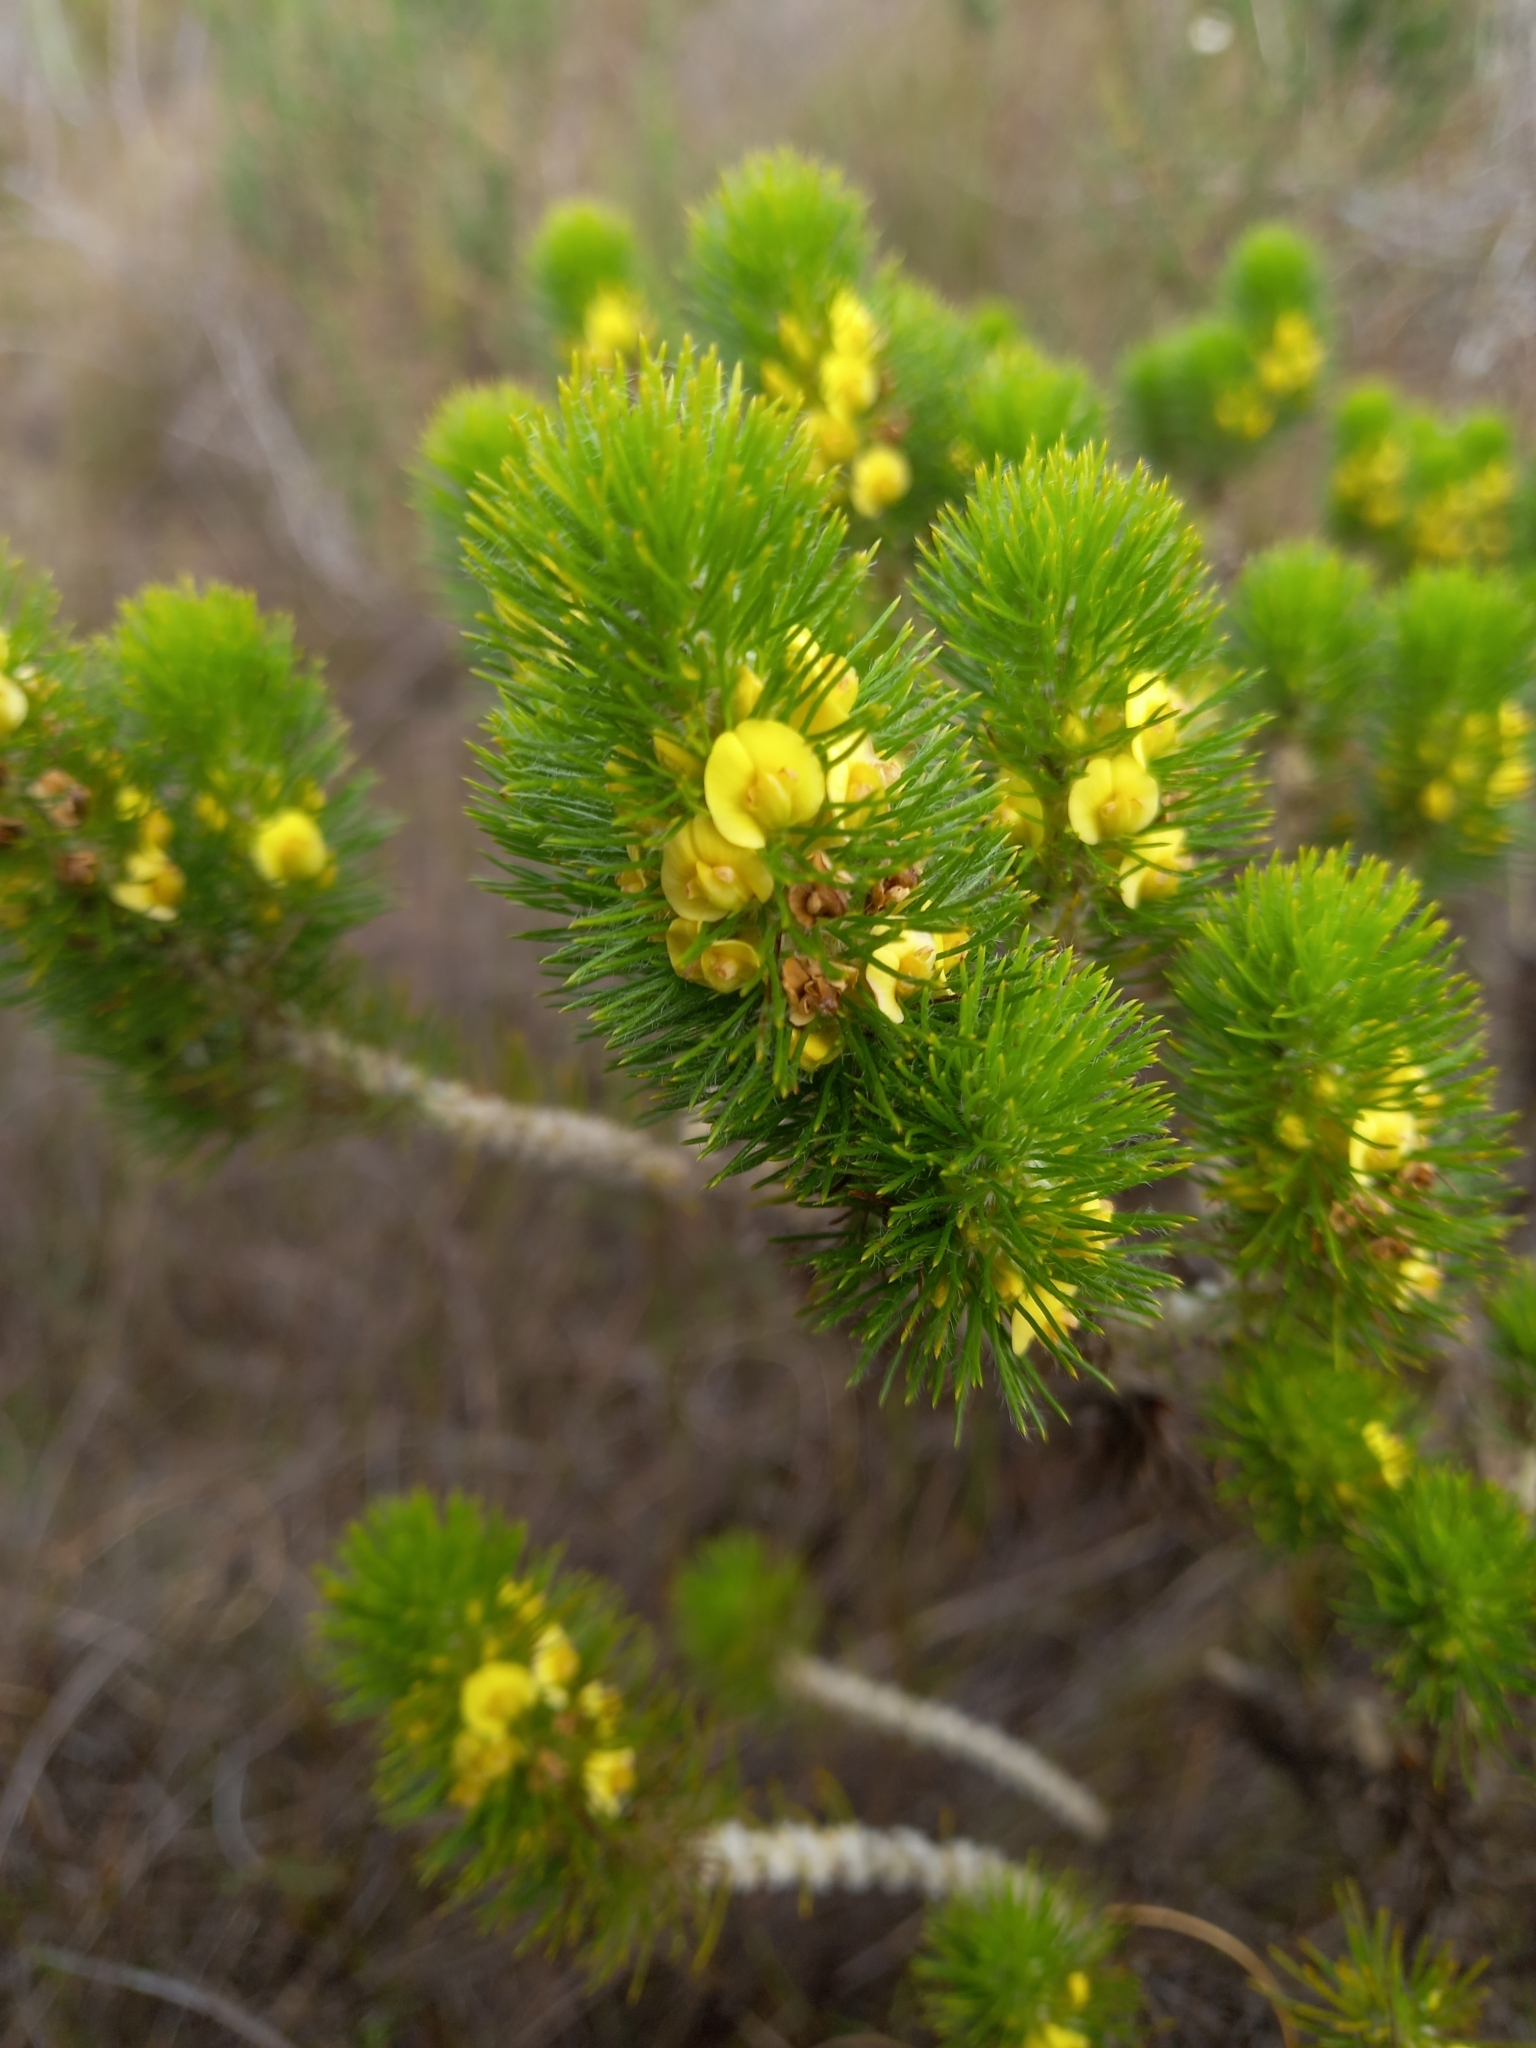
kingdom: Plantae
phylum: Tracheophyta
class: Magnoliopsida
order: Fabales
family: Fabaceae
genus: Aspalathus
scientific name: Aspalathus alopecurus
